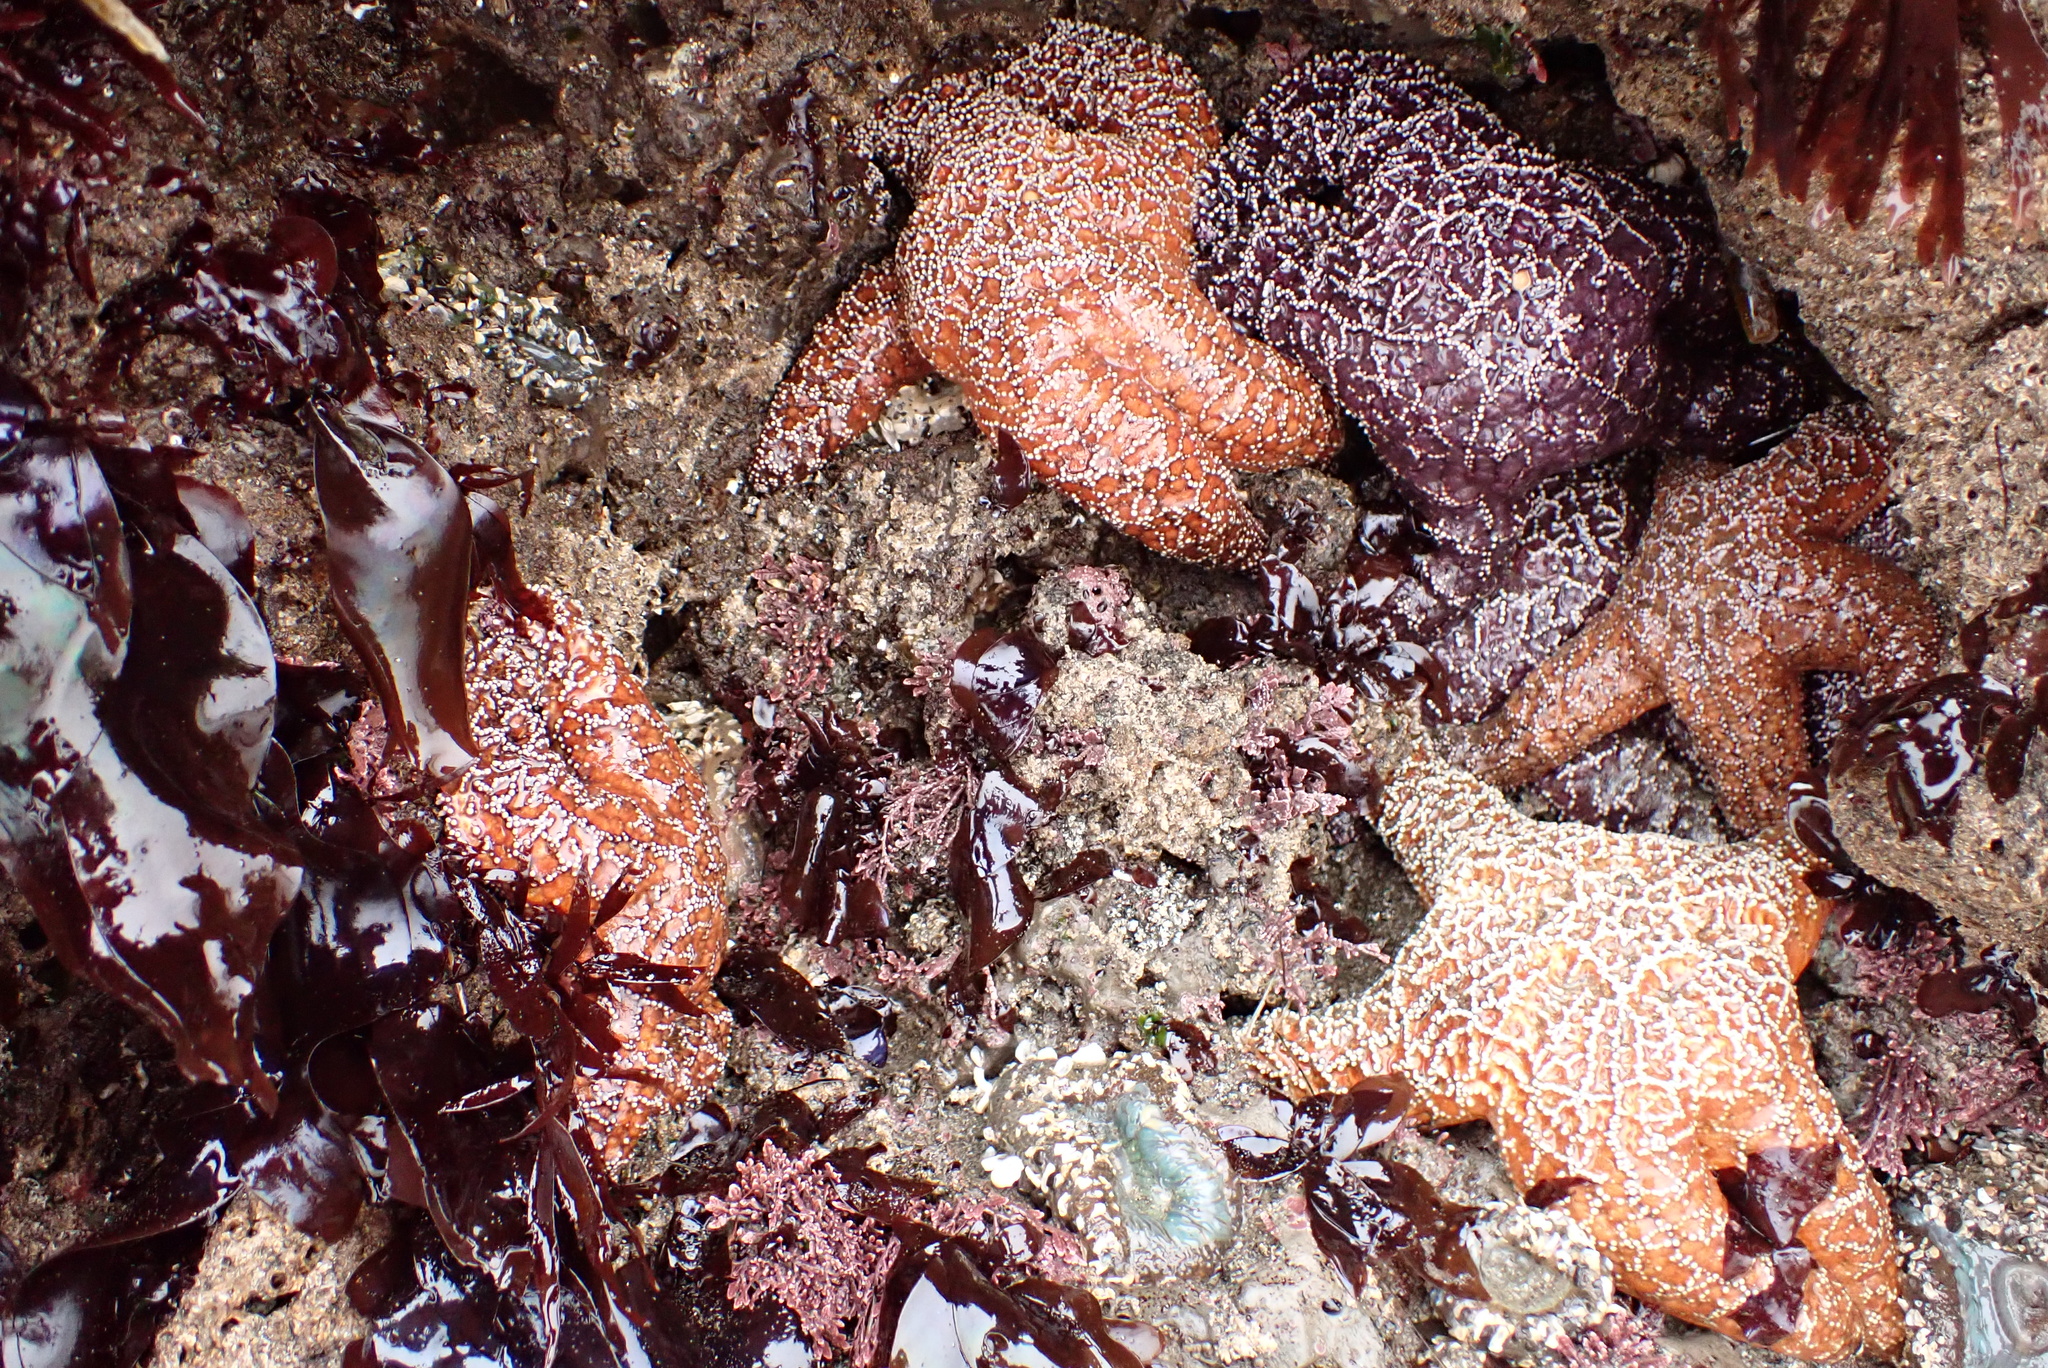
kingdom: Animalia
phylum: Echinodermata
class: Asteroidea
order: Forcipulatida
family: Asteriidae
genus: Pisaster
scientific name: Pisaster ochraceus
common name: Ochre stars
